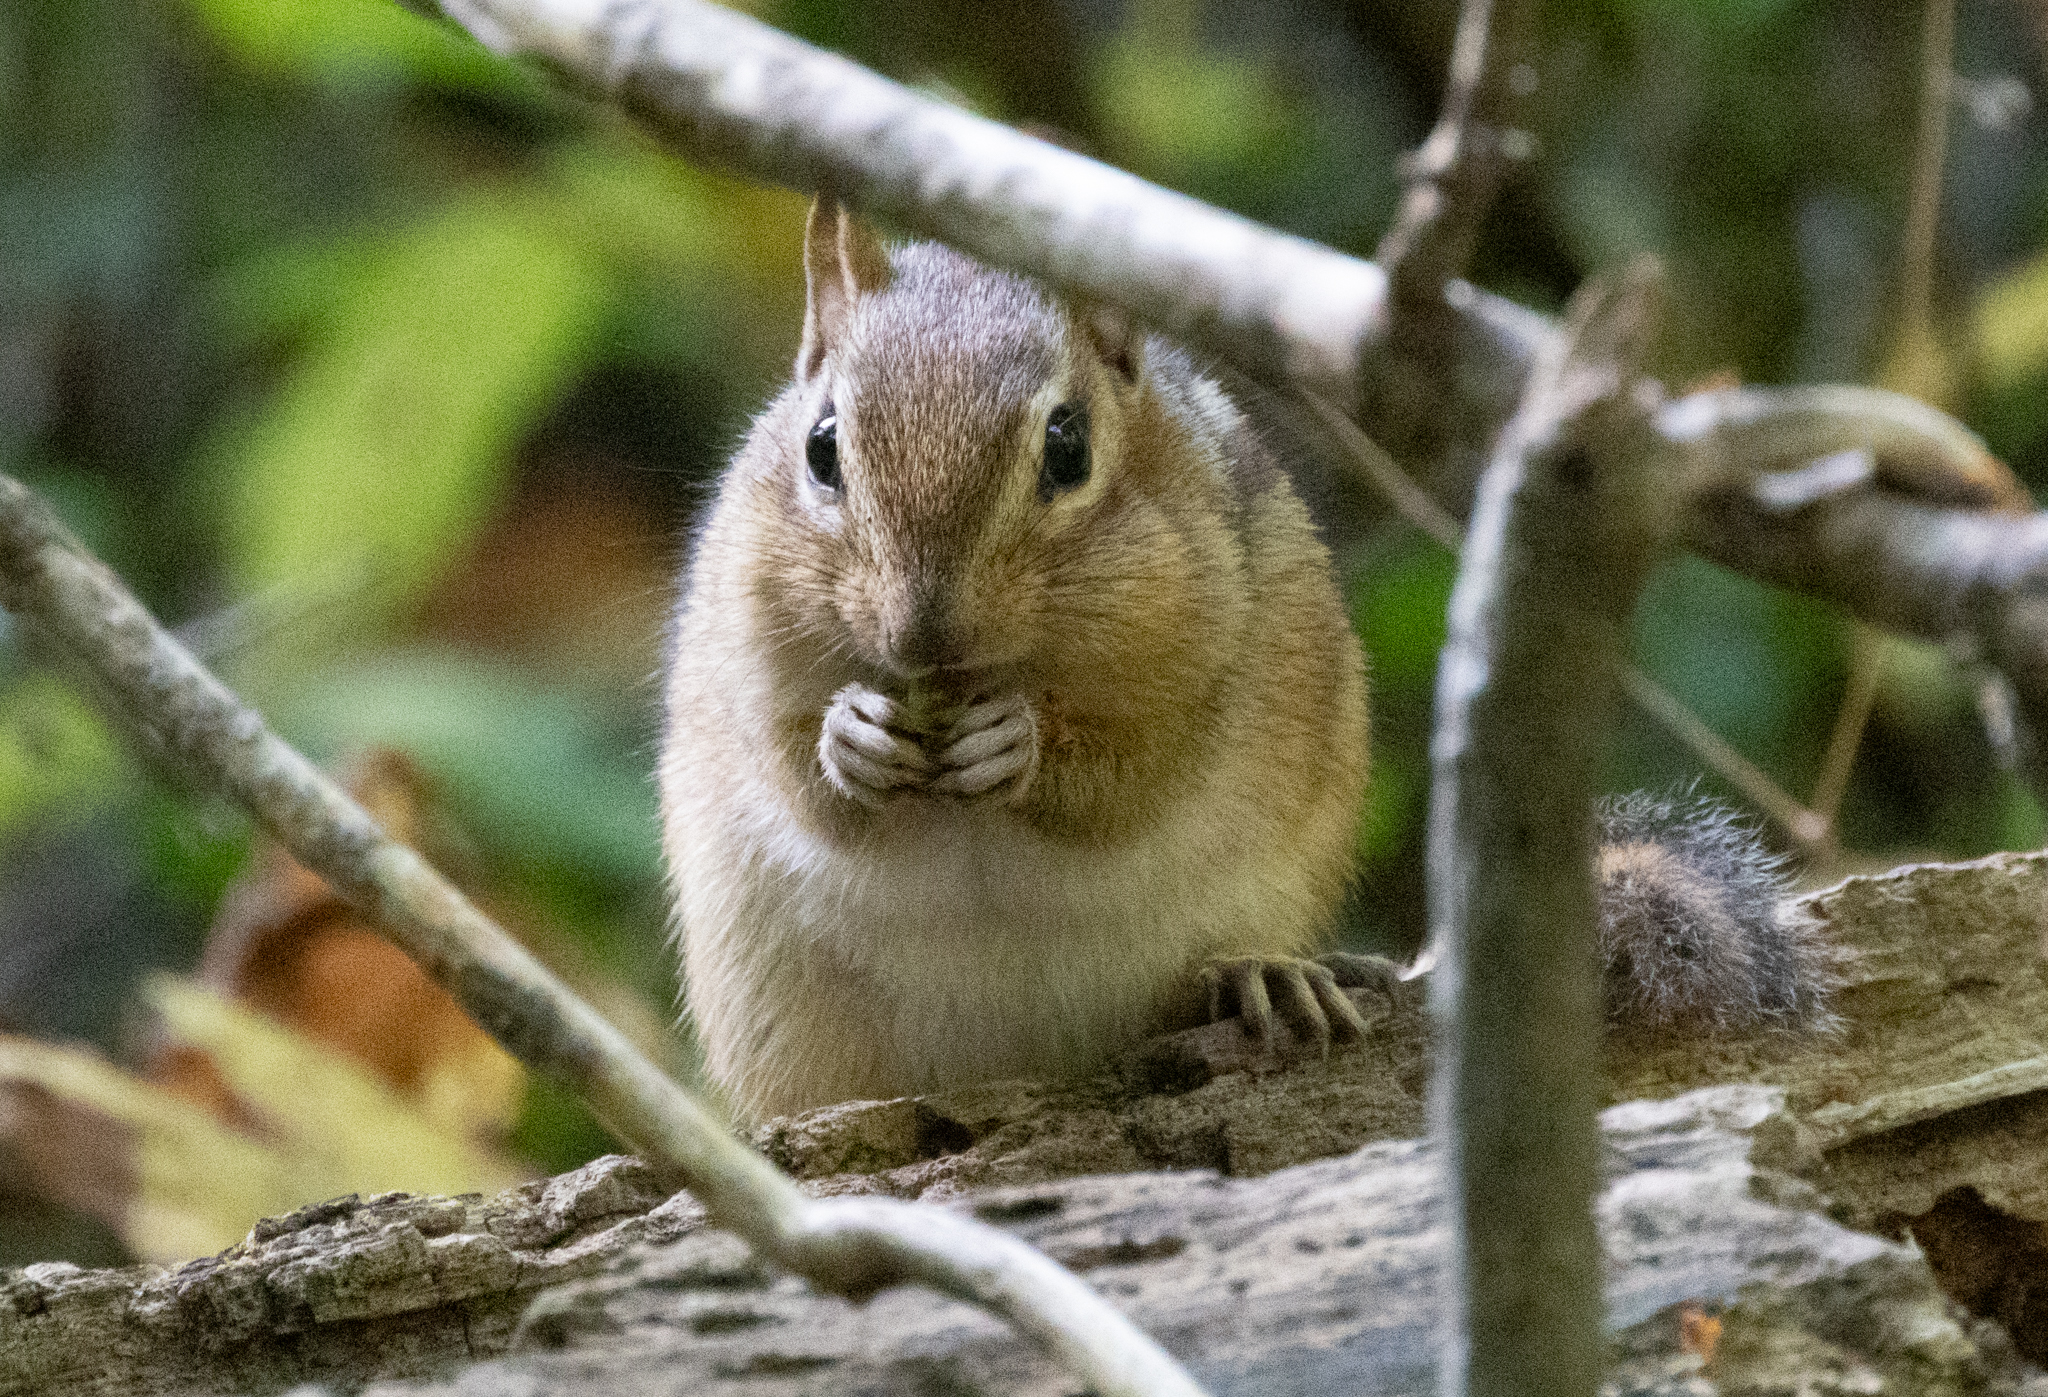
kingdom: Animalia
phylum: Chordata
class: Mammalia
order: Rodentia
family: Sciuridae
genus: Tamias
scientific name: Tamias striatus
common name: Eastern chipmunk
